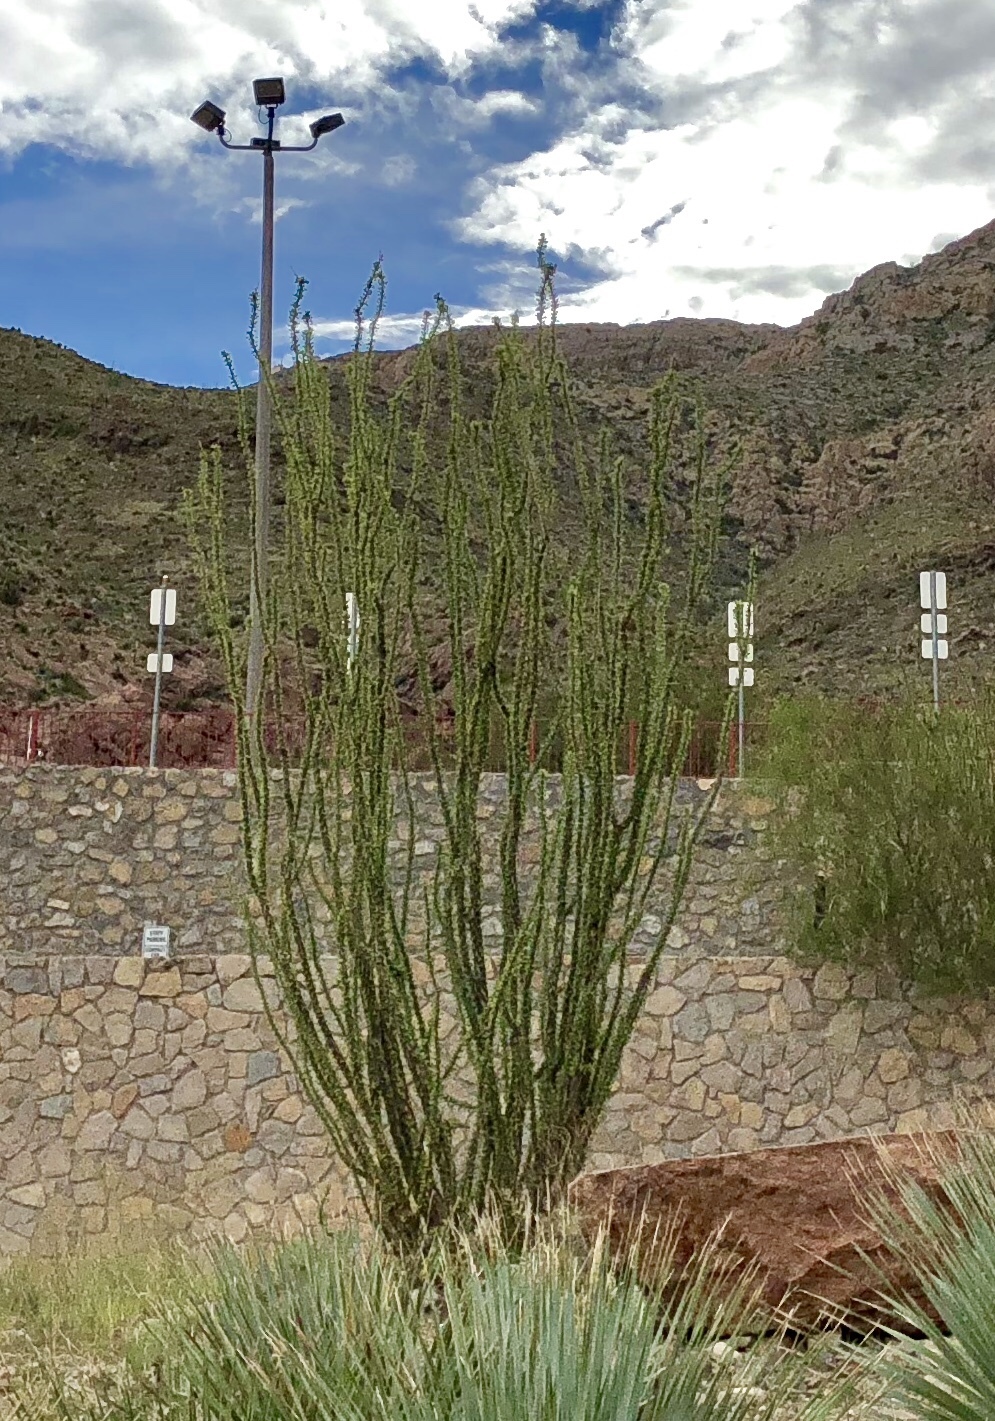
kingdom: Plantae
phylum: Tracheophyta
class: Magnoliopsida
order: Ericales
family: Fouquieriaceae
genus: Fouquieria
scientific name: Fouquieria splendens
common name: Vine-cactus
